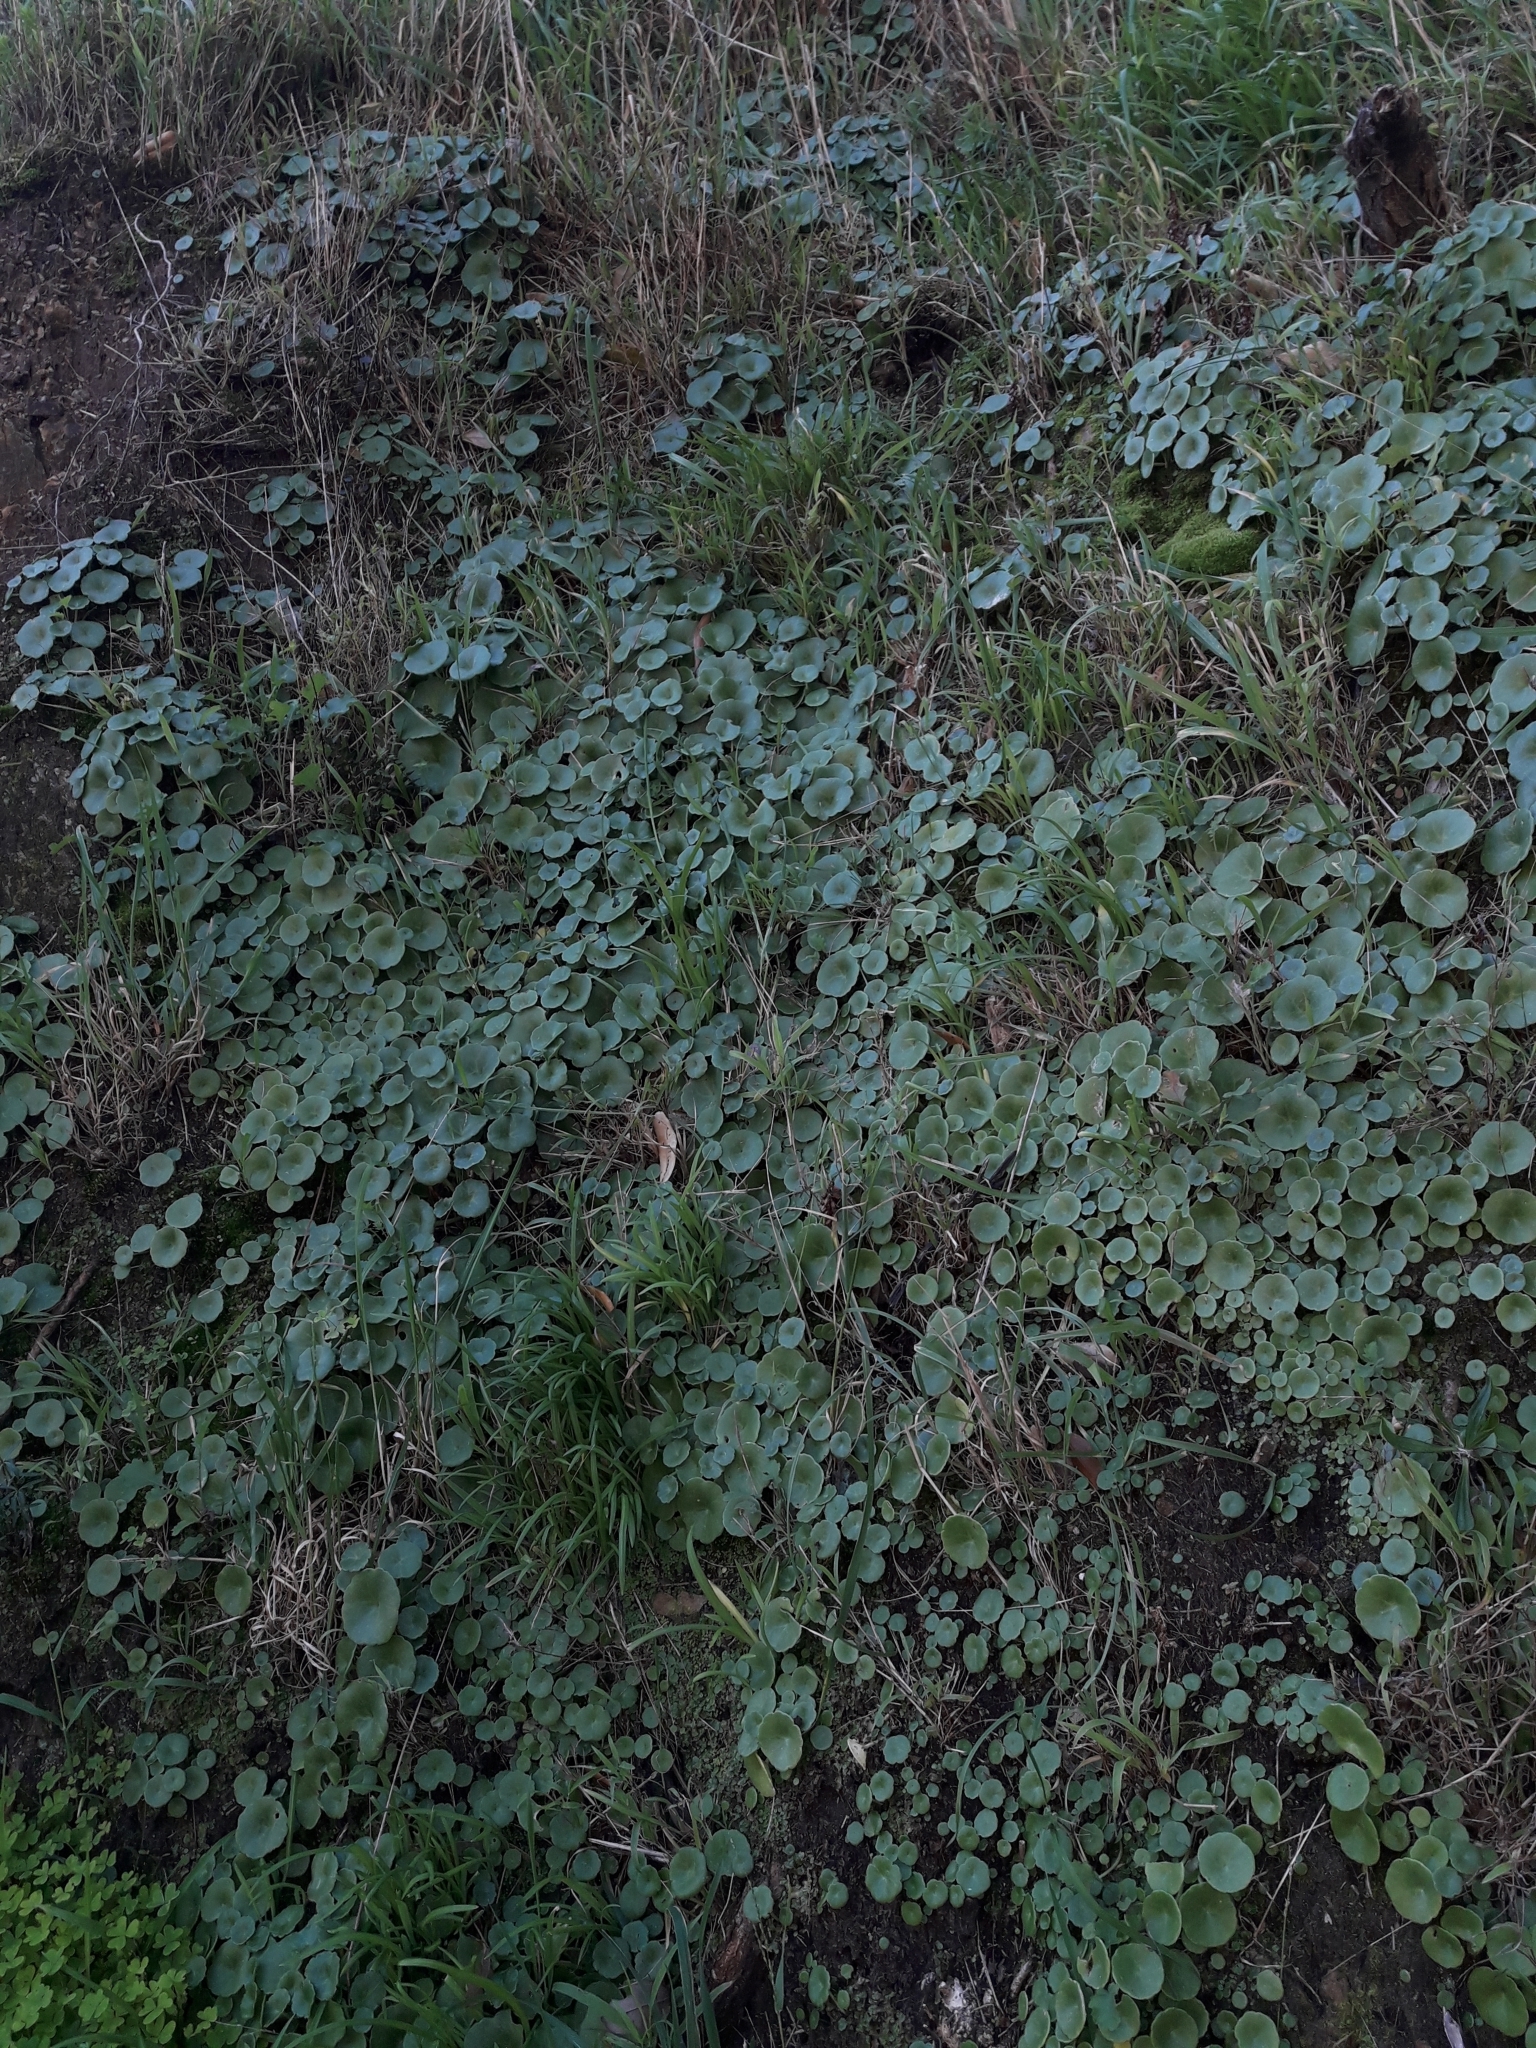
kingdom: Plantae
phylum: Tracheophyta
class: Magnoliopsida
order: Saxifragales
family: Crassulaceae
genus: Umbilicus
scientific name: Umbilicus rupestris
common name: Navelwort
